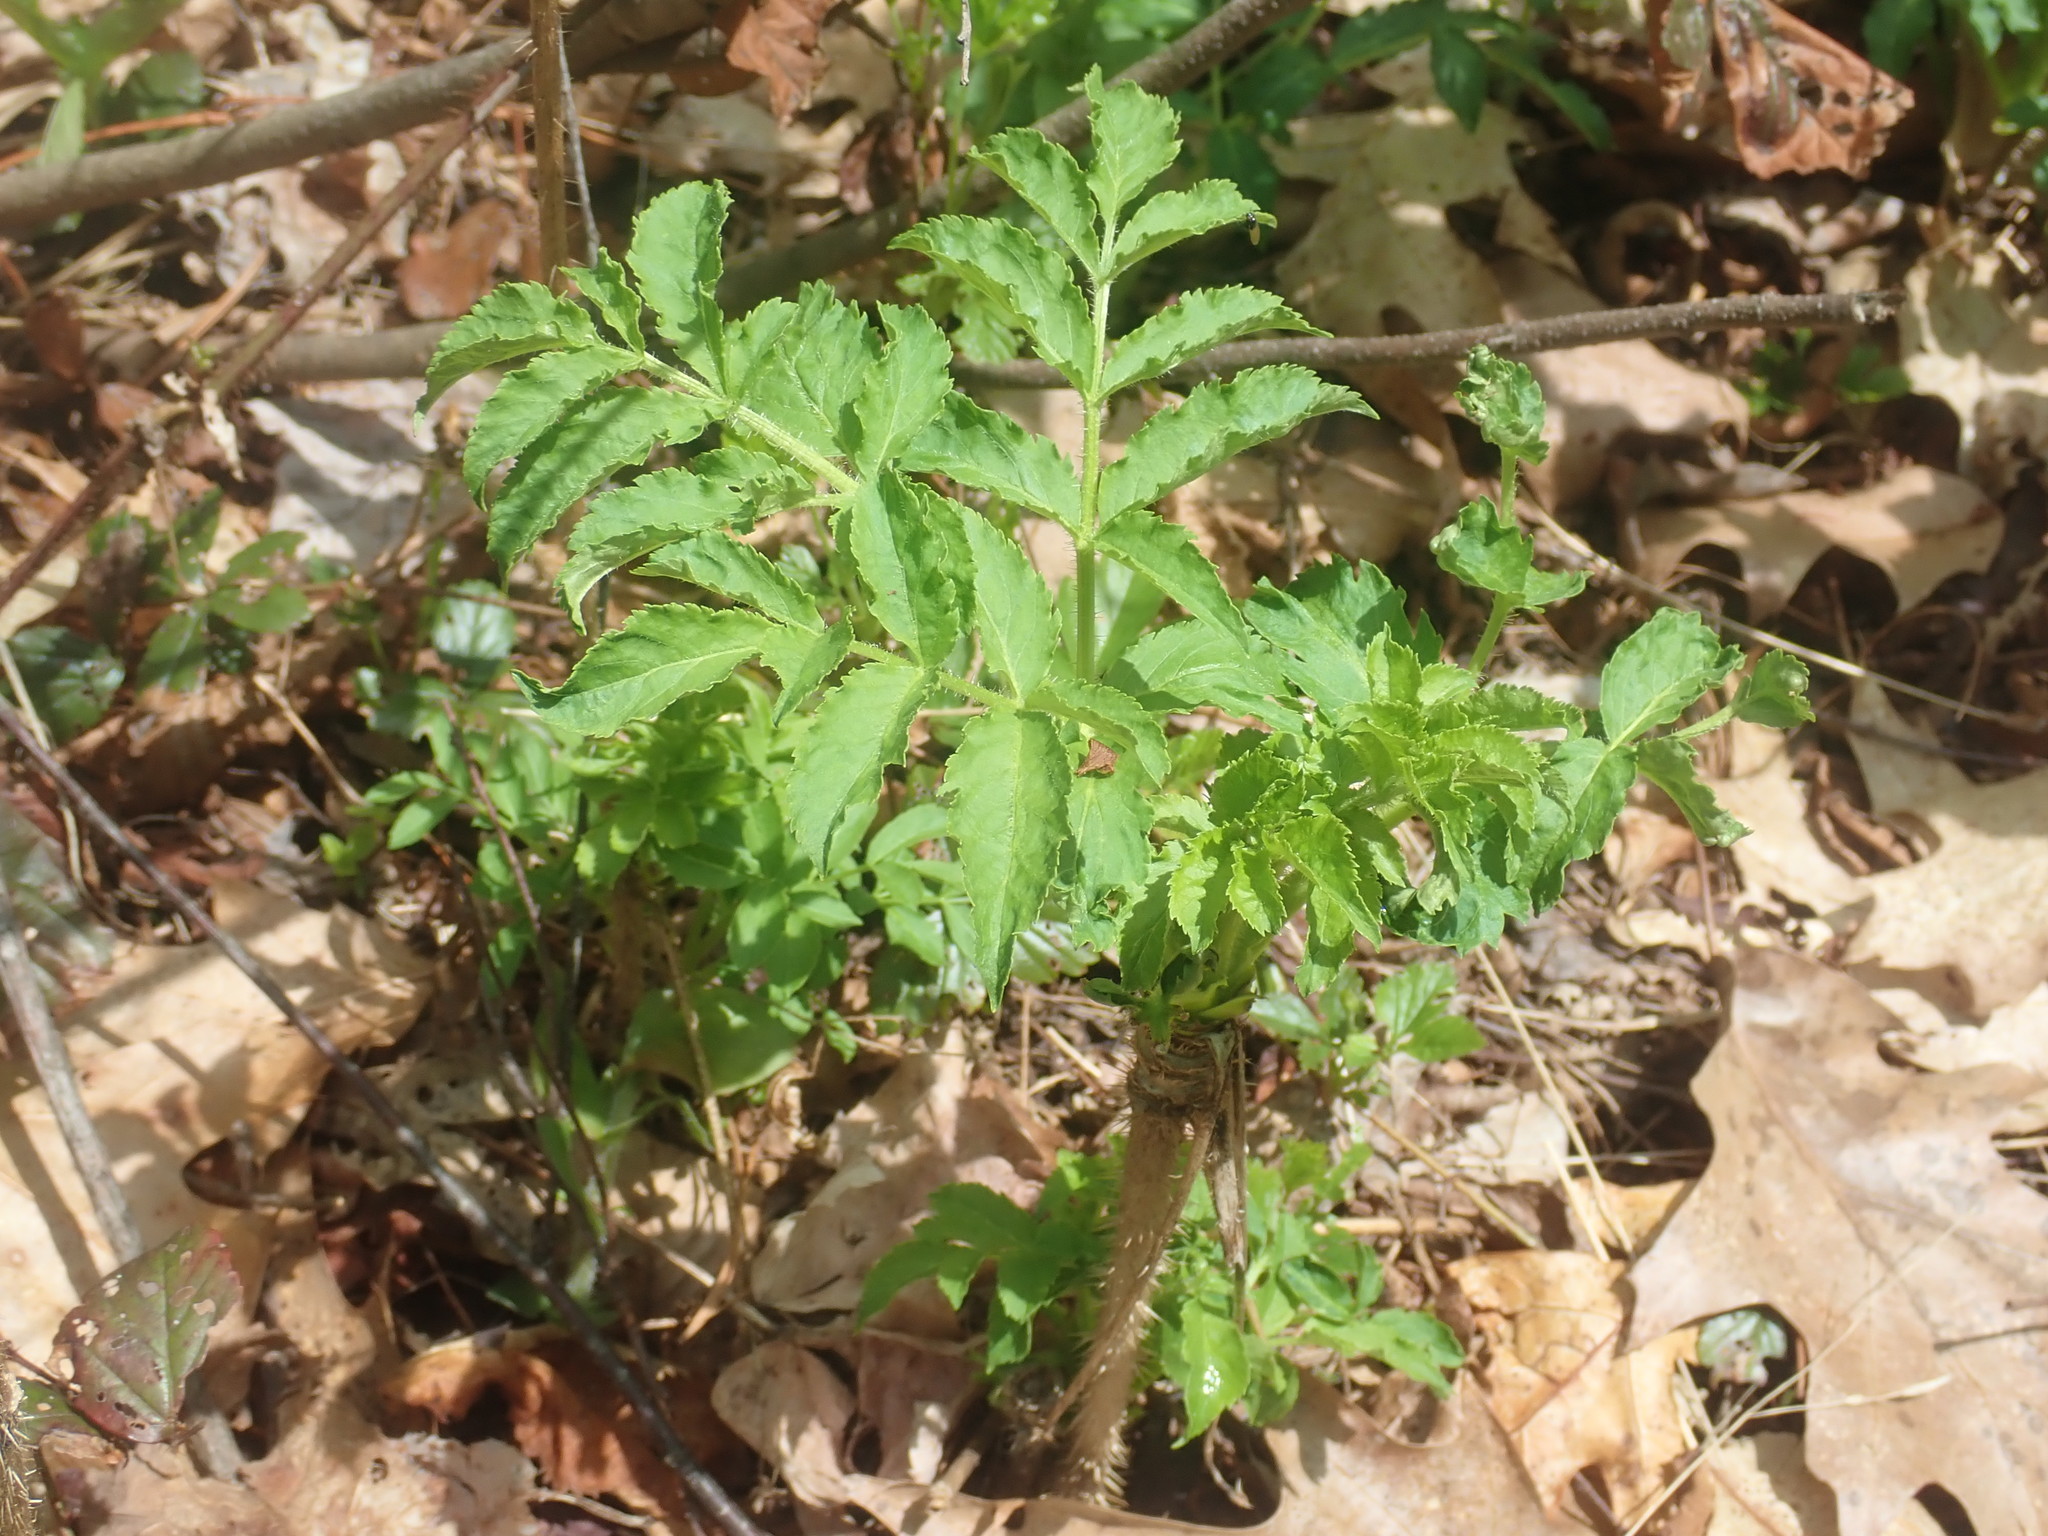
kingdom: Plantae
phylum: Tracheophyta
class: Magnoliopsida
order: Apiales
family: Araliaceae
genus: Aralia
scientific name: Aralia hispida
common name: Bristly sarsaparilla
